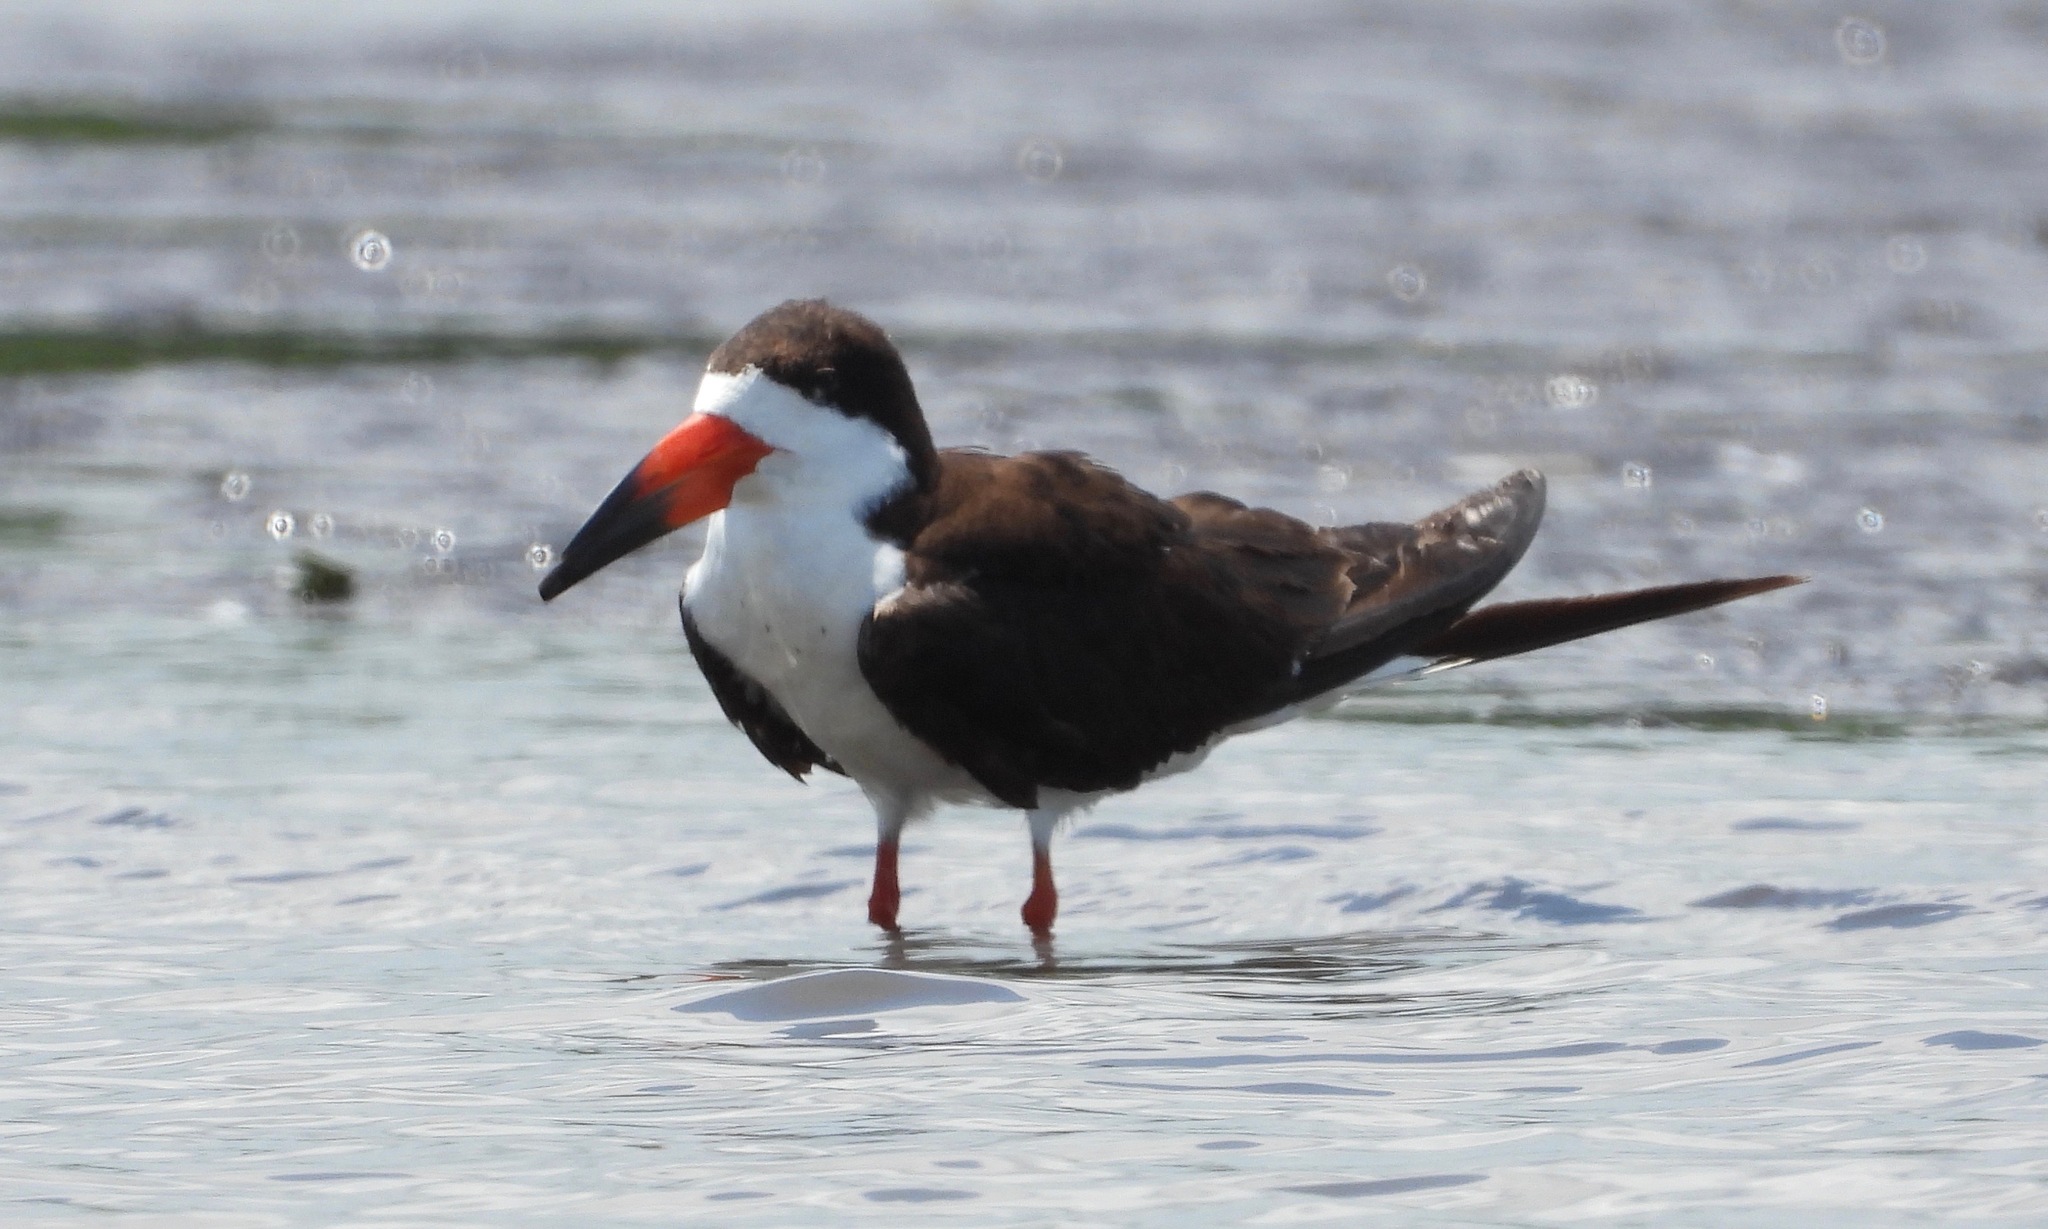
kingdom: Animalia
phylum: Chordata
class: Aves
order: Charadriiformes
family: Laridae
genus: Rynchops
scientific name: Rynchops niger
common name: Black skimmer
